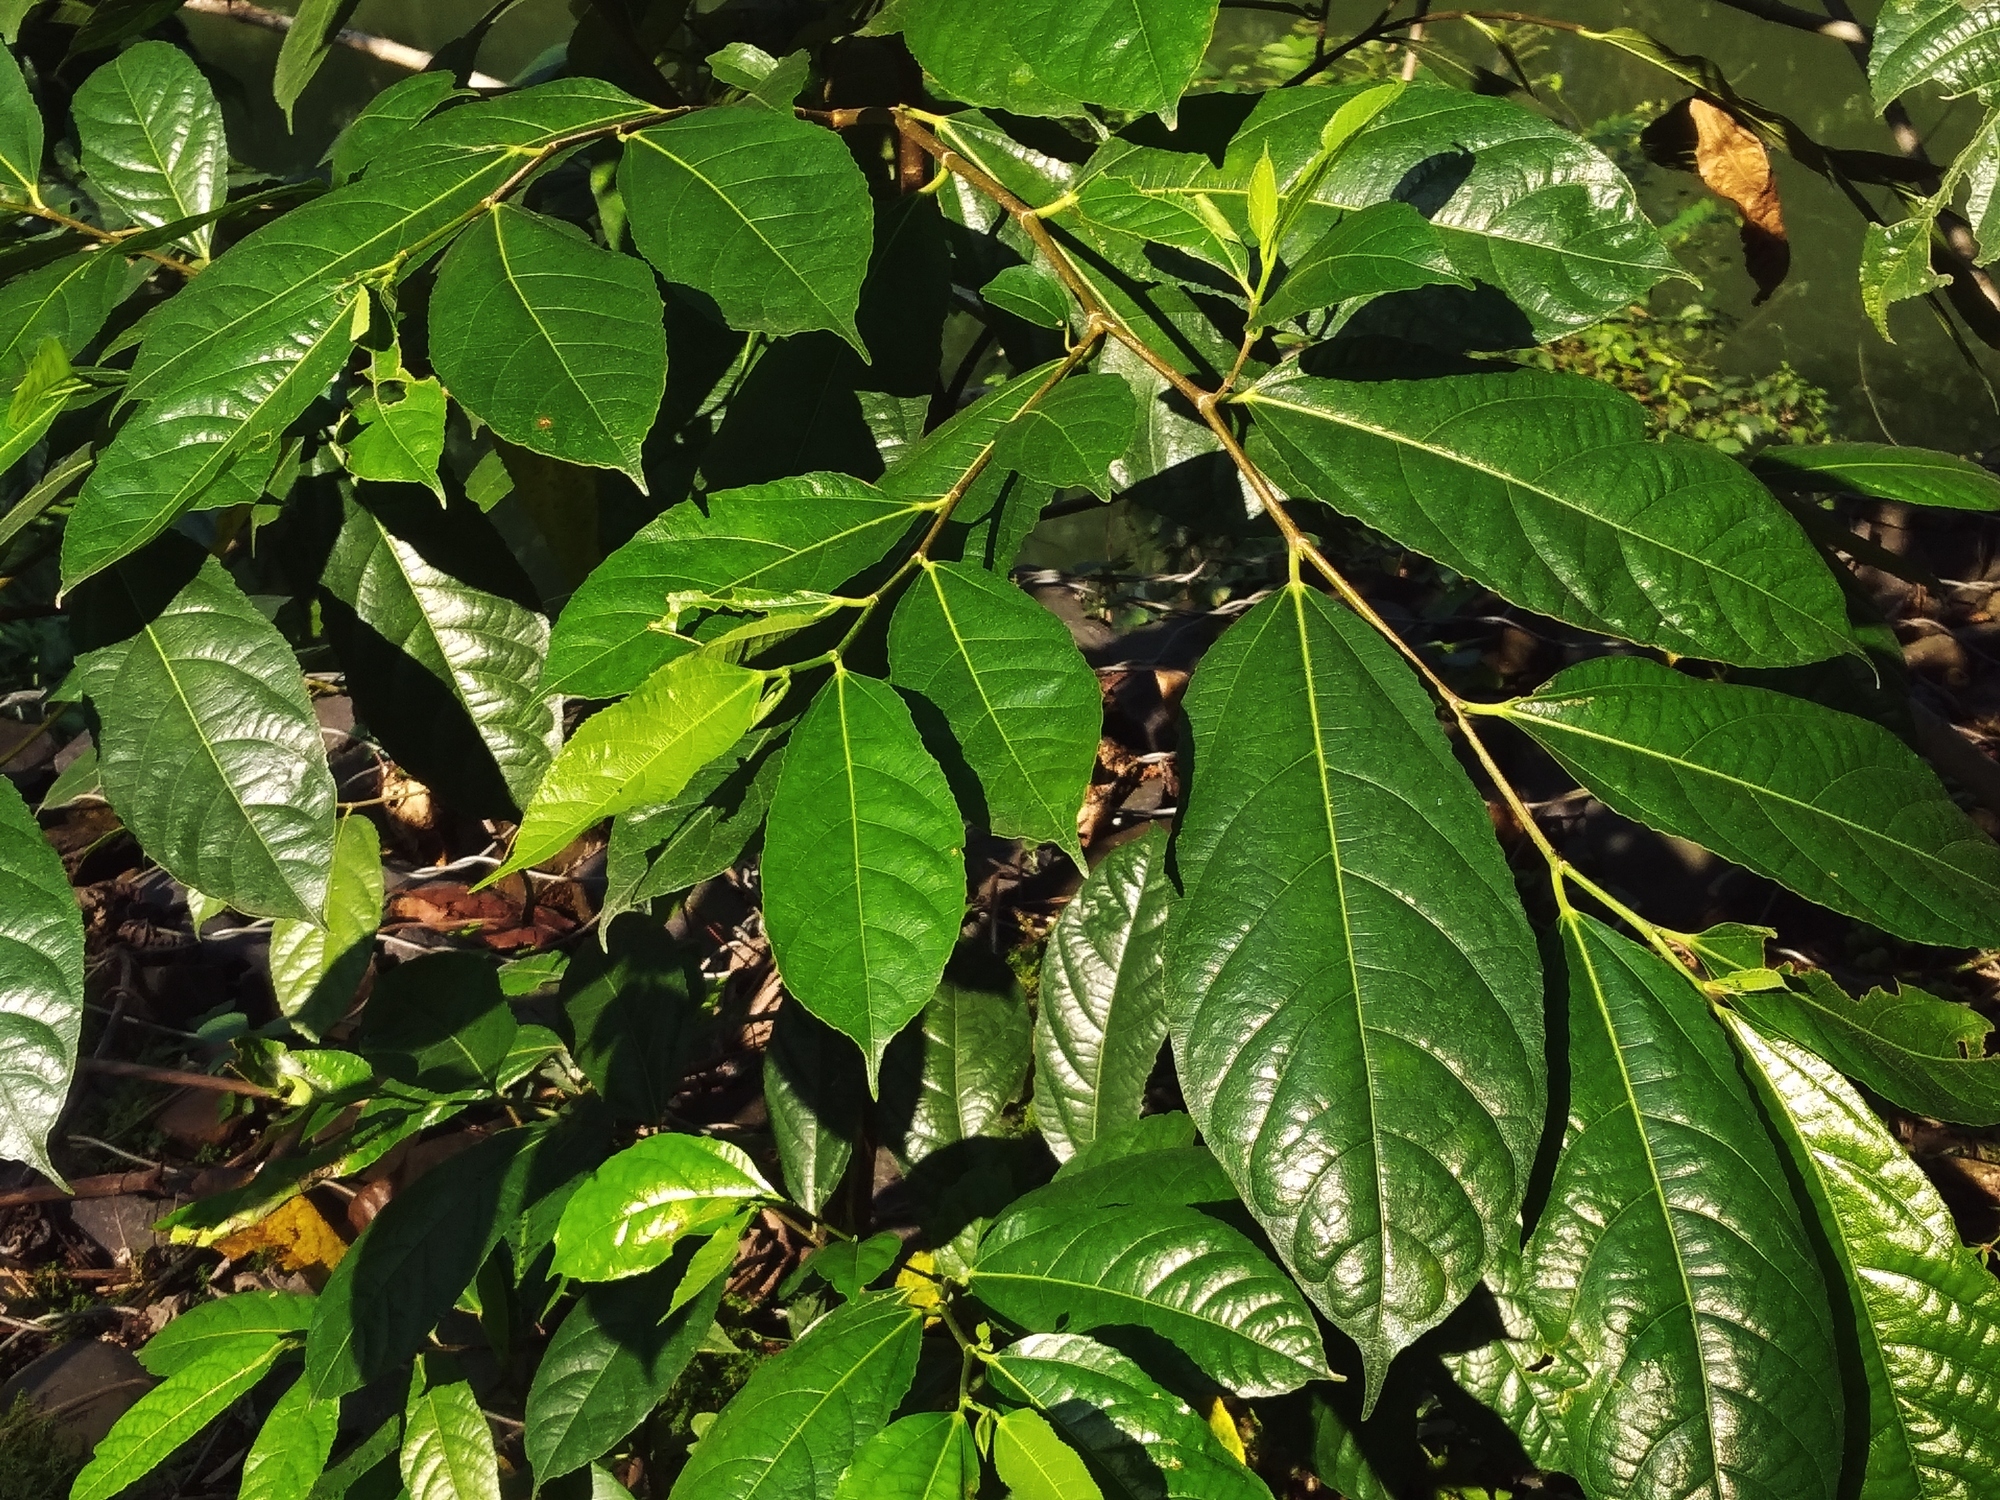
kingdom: Plantae
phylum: Tracheophyta
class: Magnoliopsida
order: Rosales
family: Moraceae
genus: Ficus
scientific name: Ficus ampelos
